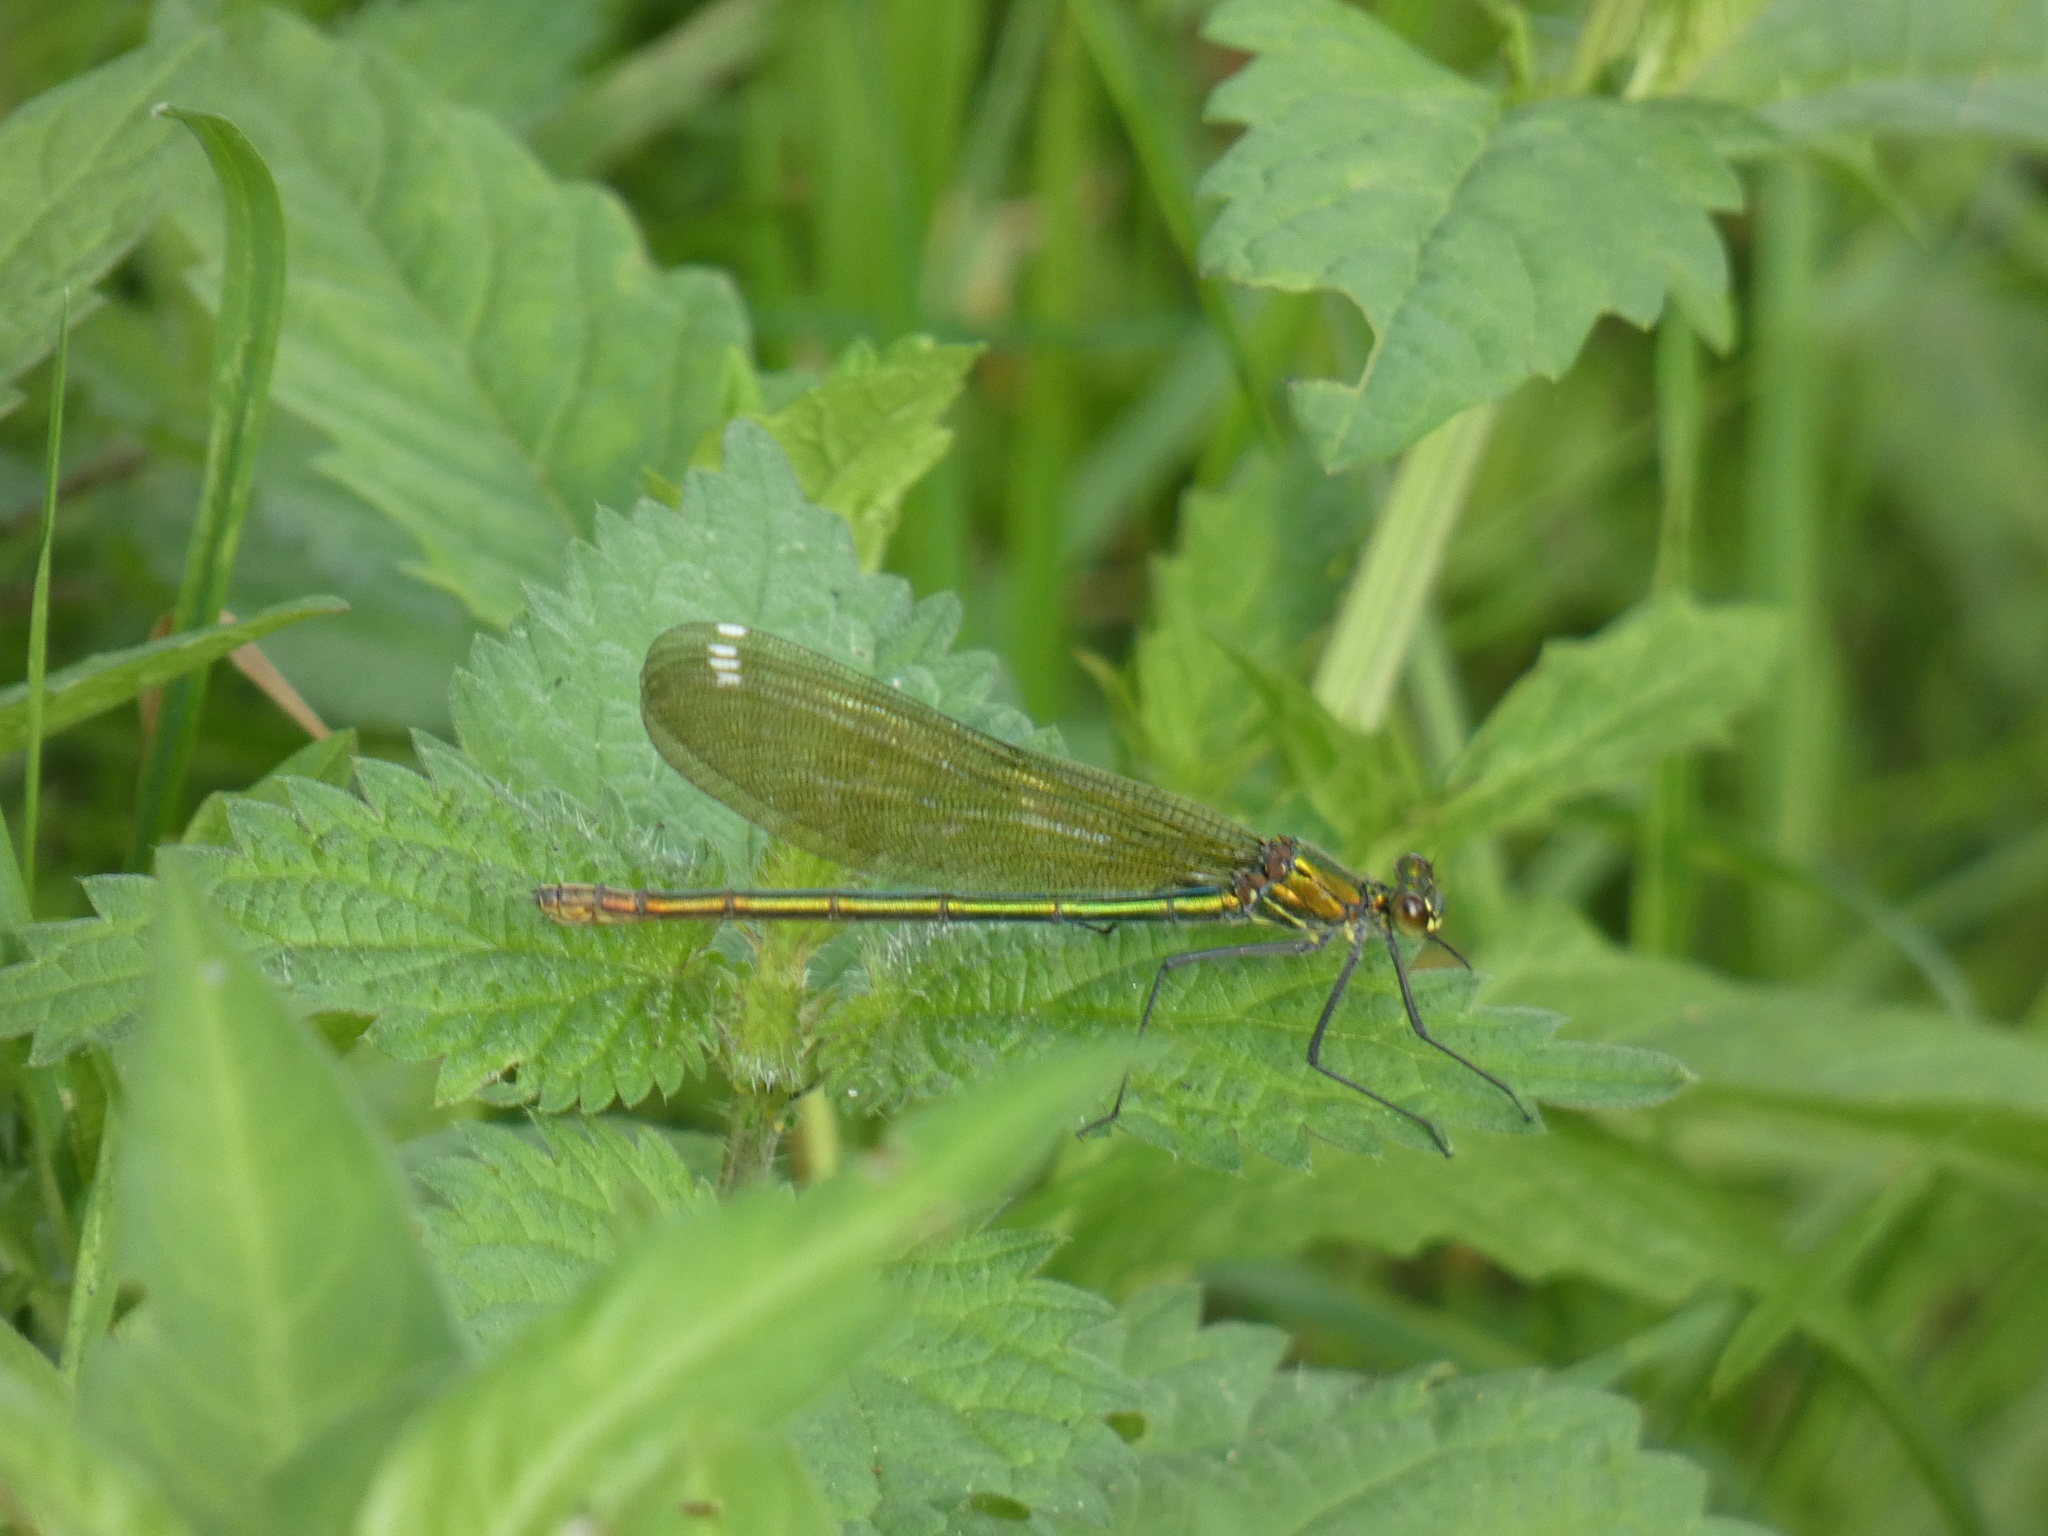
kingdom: Animalia
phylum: Arthropoda
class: Insecta
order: Odonata
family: Calopterygidae
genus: Calopteryx
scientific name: Calopteryx splendens
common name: Banded demoiselle
